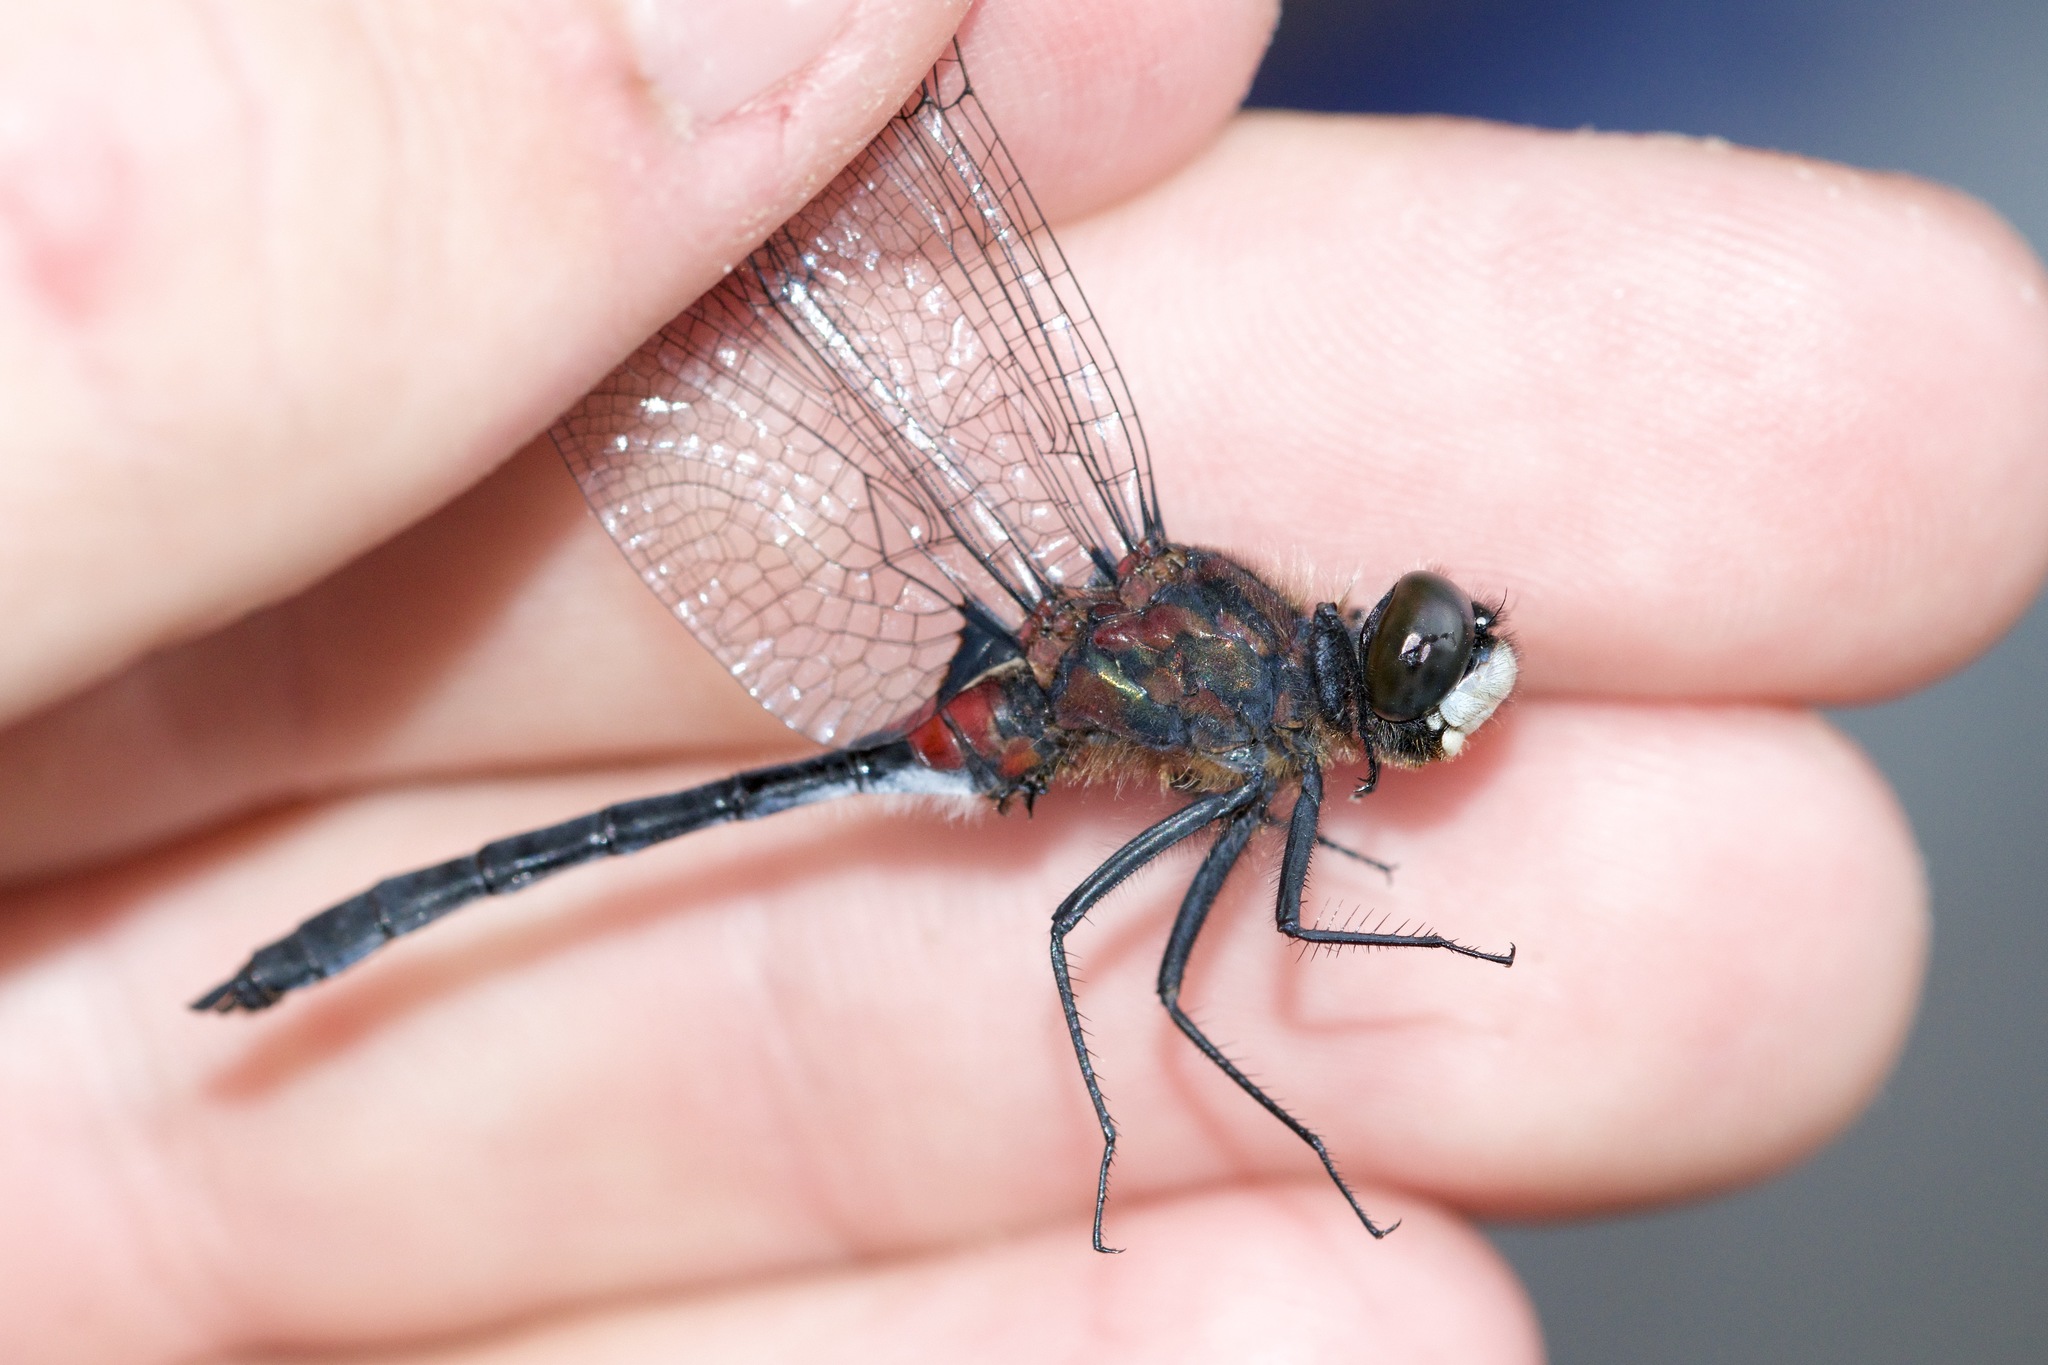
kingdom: Animalia
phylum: Arthropoda
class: Insecta
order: Odonata
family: Libellulidae
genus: Leucorrhinia
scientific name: Leucorrhinia glacialis
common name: Crimson-ringed whiteface
